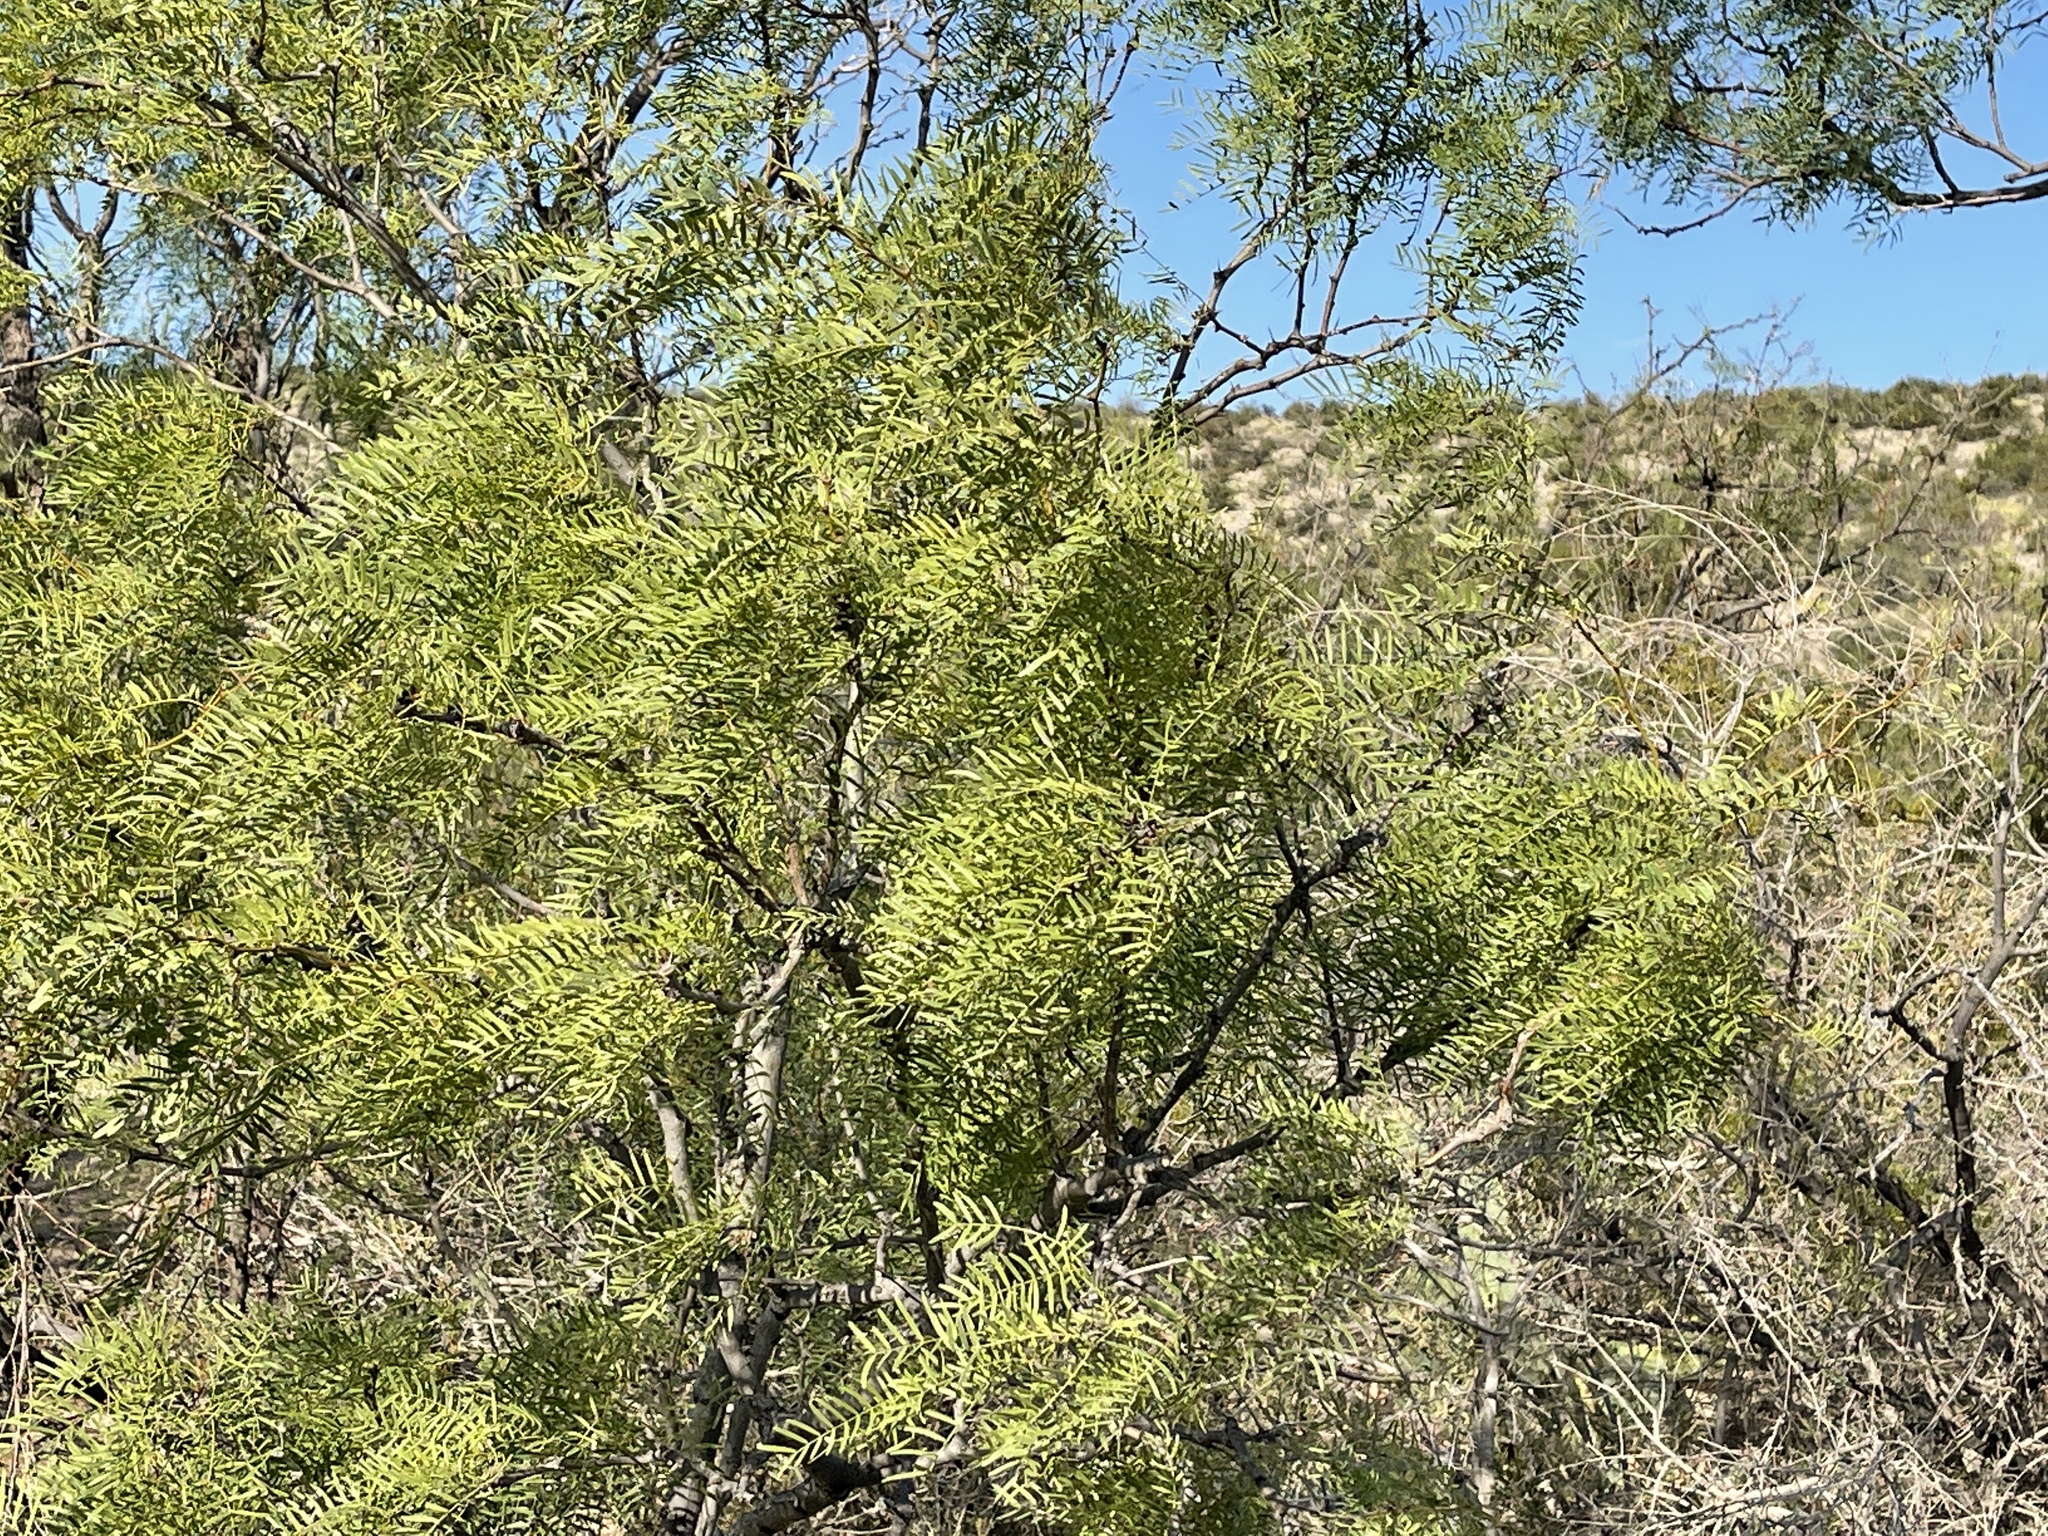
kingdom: Plantae
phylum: Tracheophyta
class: Magnoliopsida
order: Fabales
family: Fabaceae
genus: Prosopis
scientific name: Prosopis glandulosa
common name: Honey mesquite
